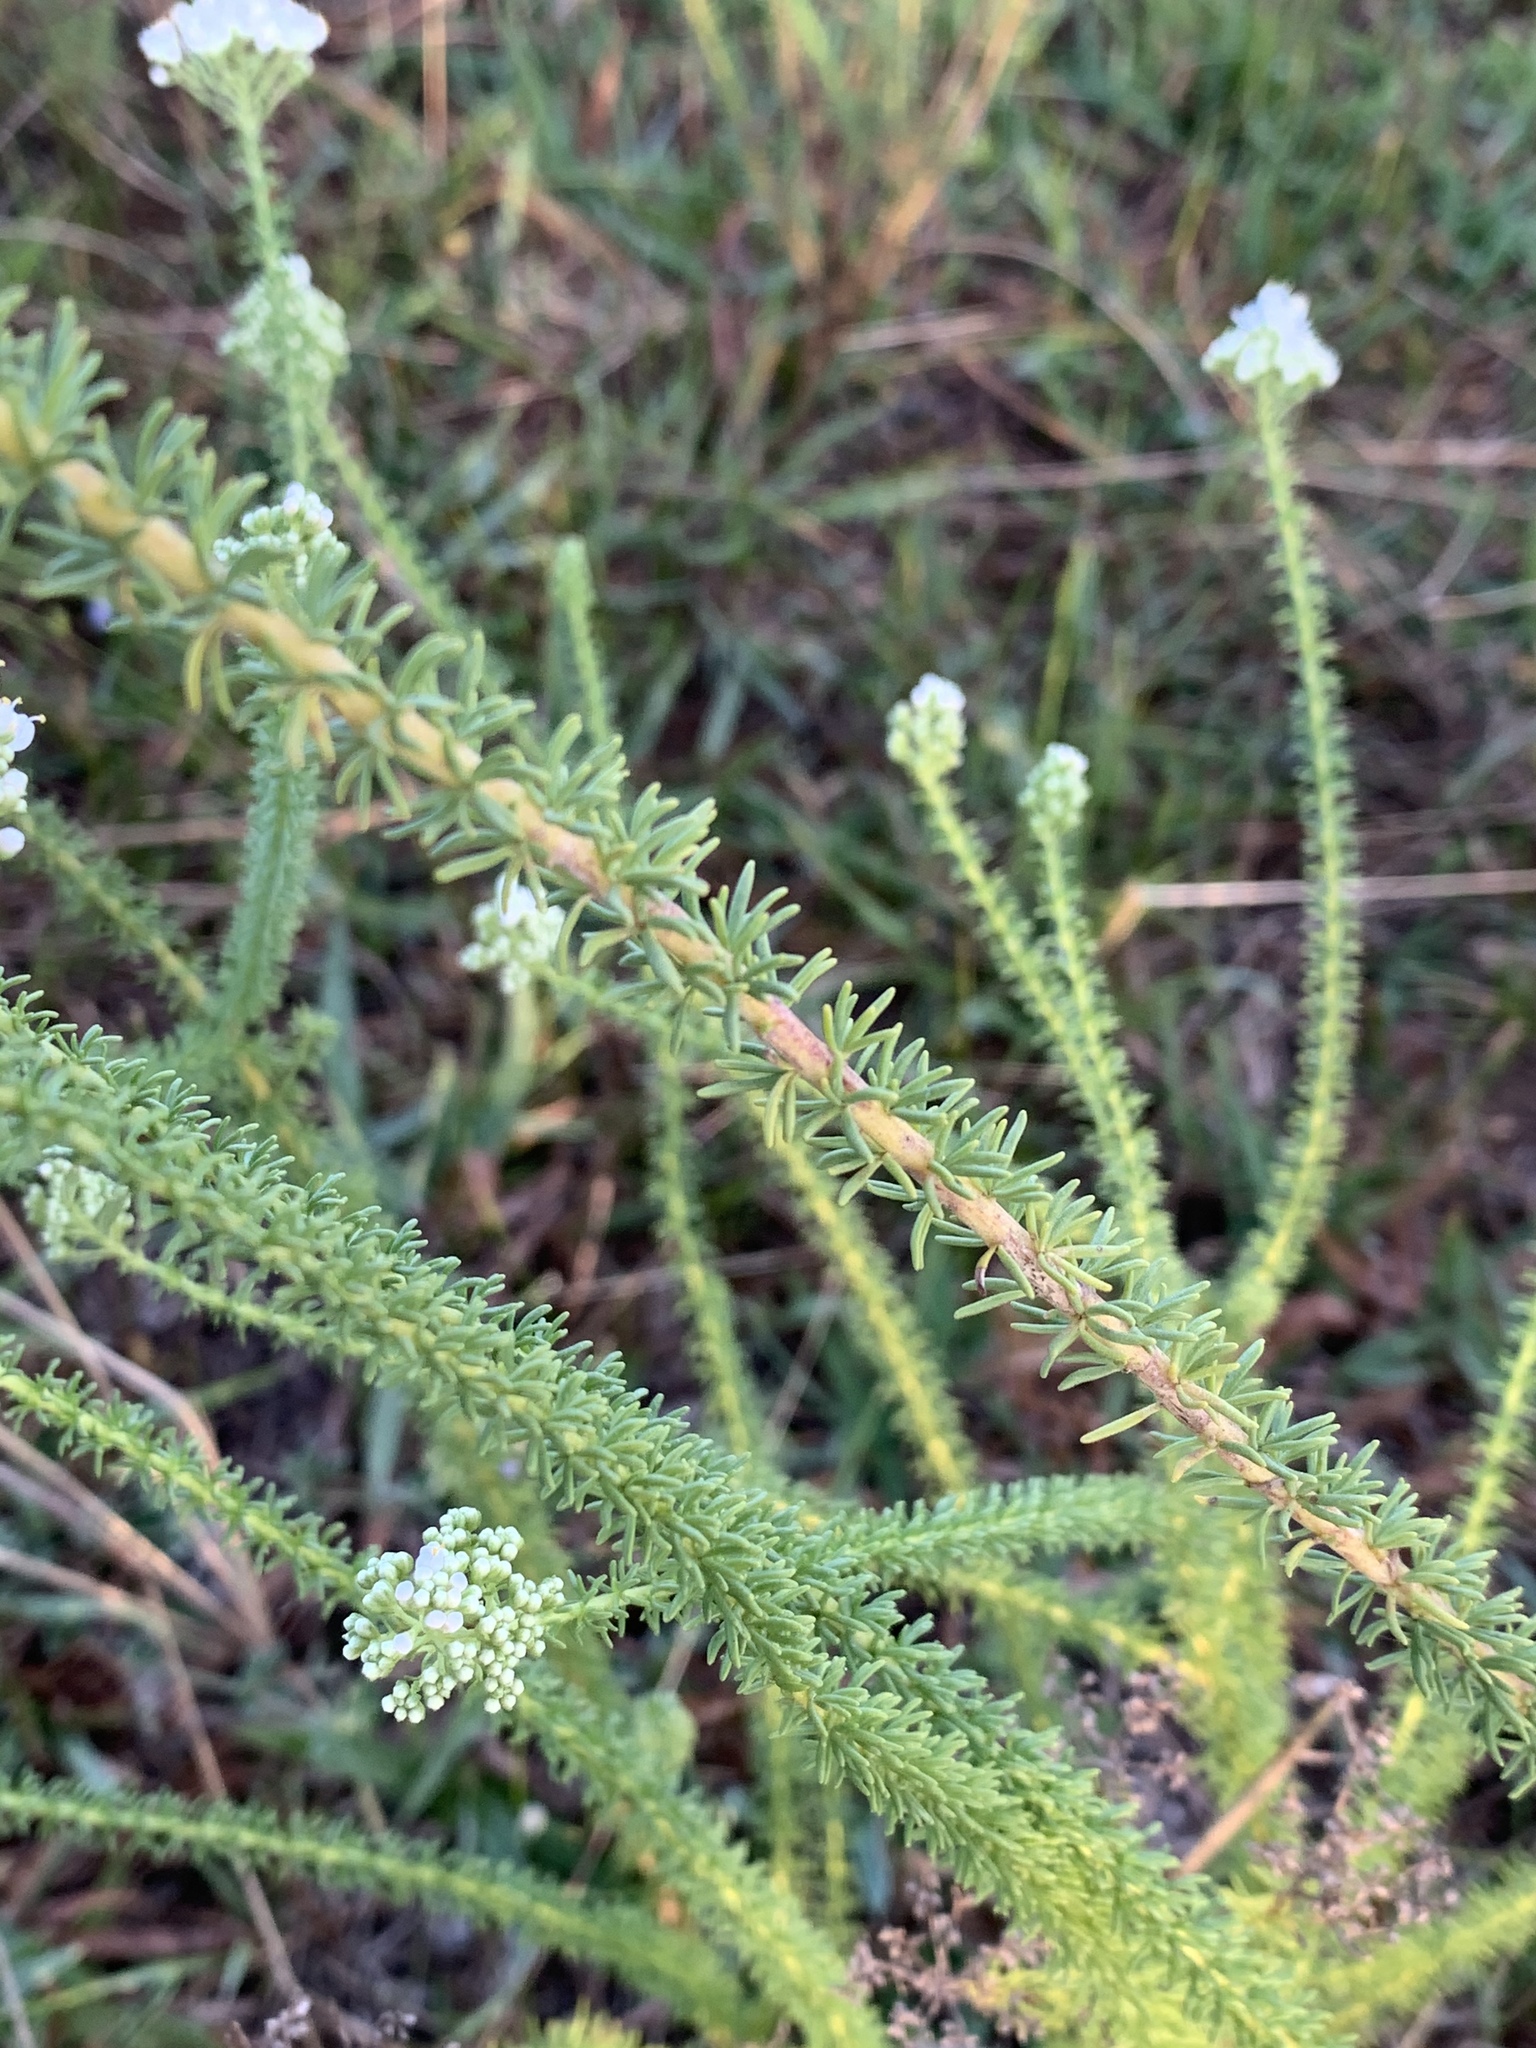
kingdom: Plantae
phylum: Tracheophyta
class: Magnoliopsida
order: Lamiales
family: Scrophulariaceae
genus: Selago
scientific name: Selago corymbosa
